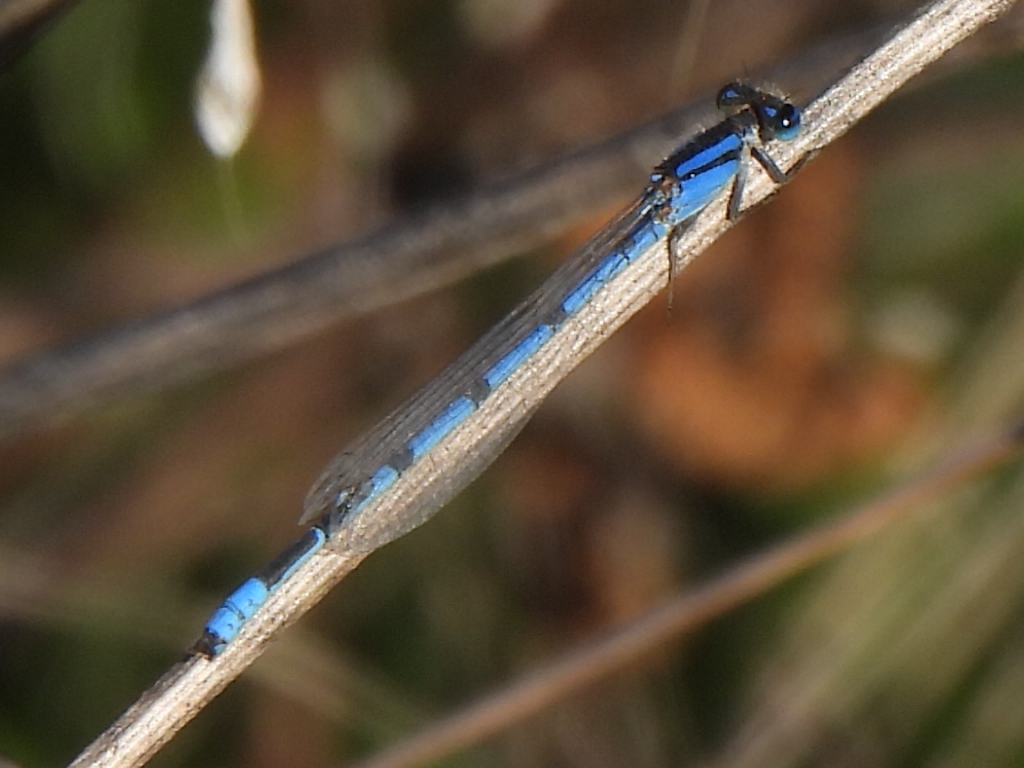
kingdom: Animalia
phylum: Arthropoda
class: Insecta
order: Odonata
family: Coenagrionidae
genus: Enallagma
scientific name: Enallagma civile
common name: Damselfly
